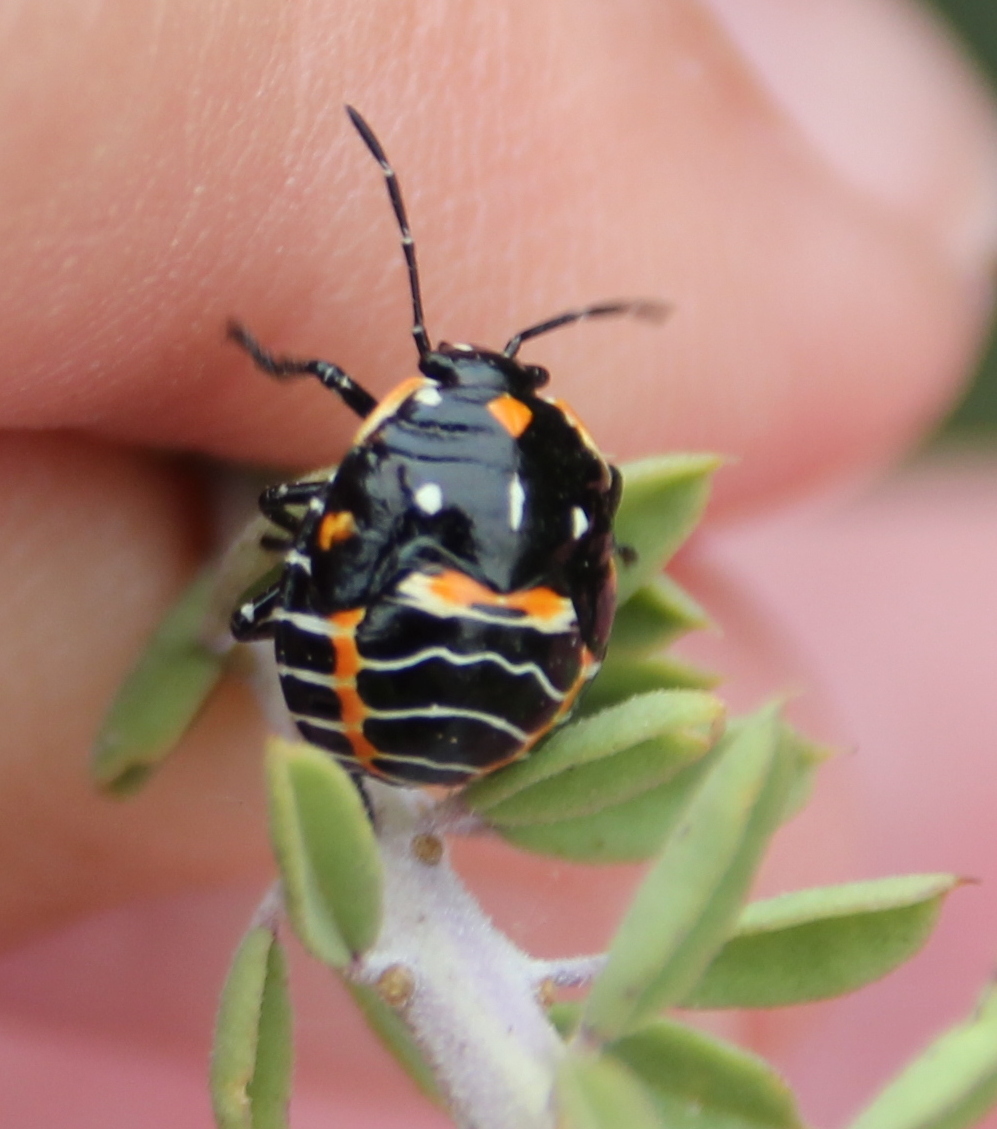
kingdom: Animalia
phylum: Arthropoda
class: Insecta
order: Hemiptera
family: Pentatomidae
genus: Murgantia
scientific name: Murgantia histrionica
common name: Harlequin bug
